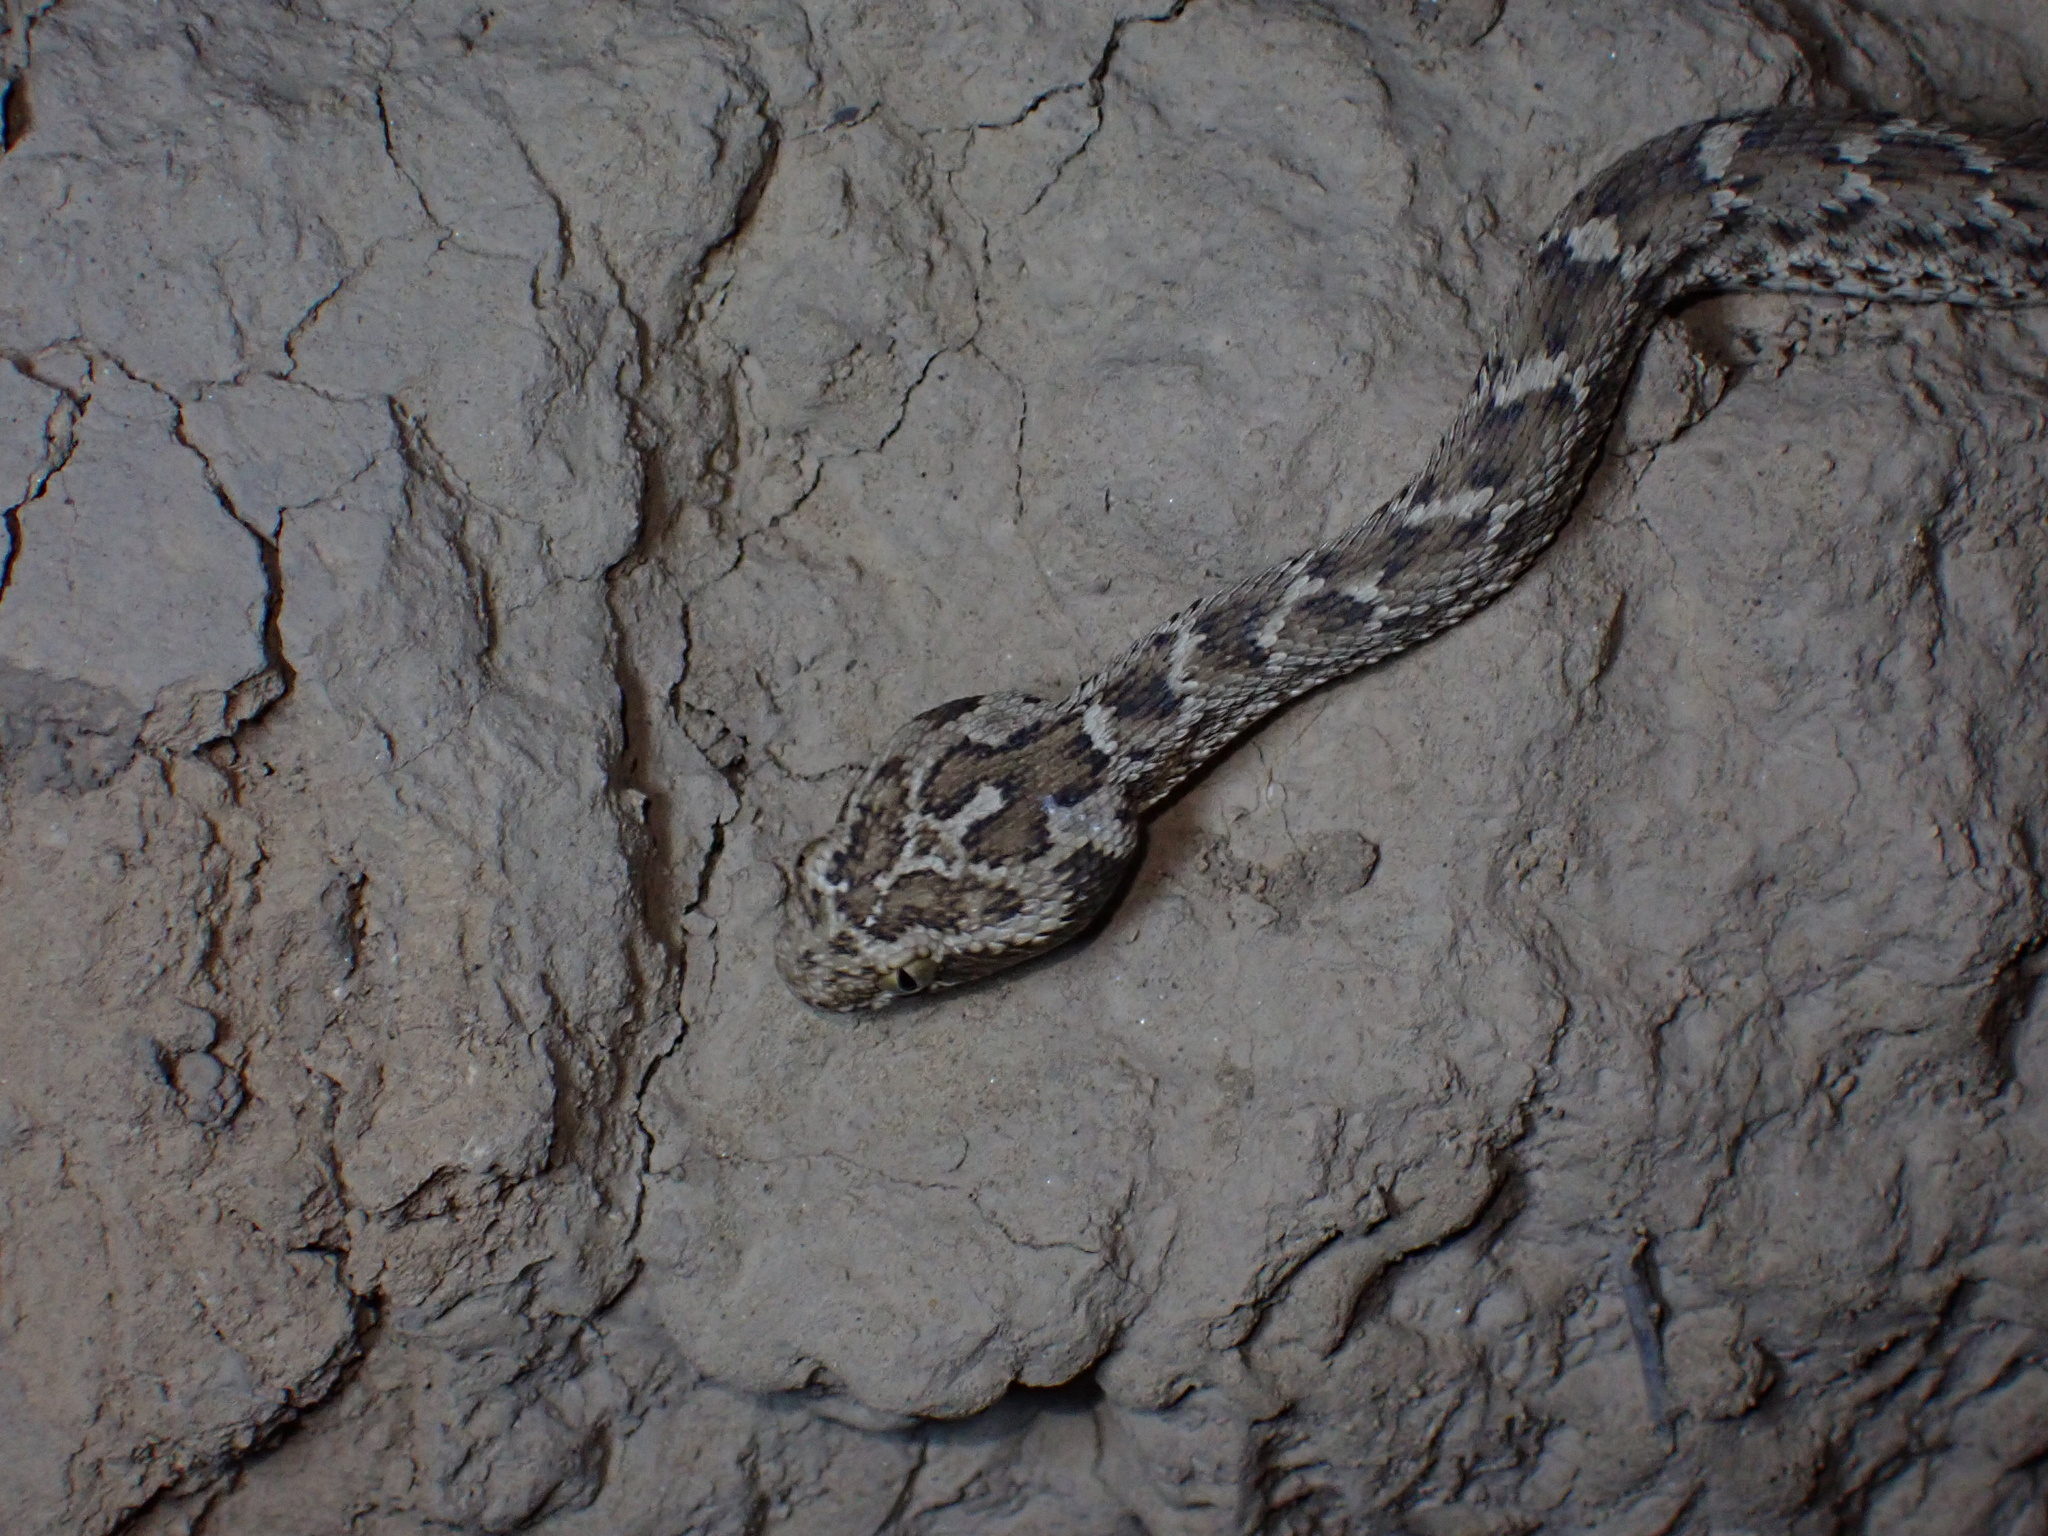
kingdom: Animalia
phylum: Chordata
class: Squamata
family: Viperidae
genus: Echis
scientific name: Echis carinatus
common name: Saw-scaled viper
